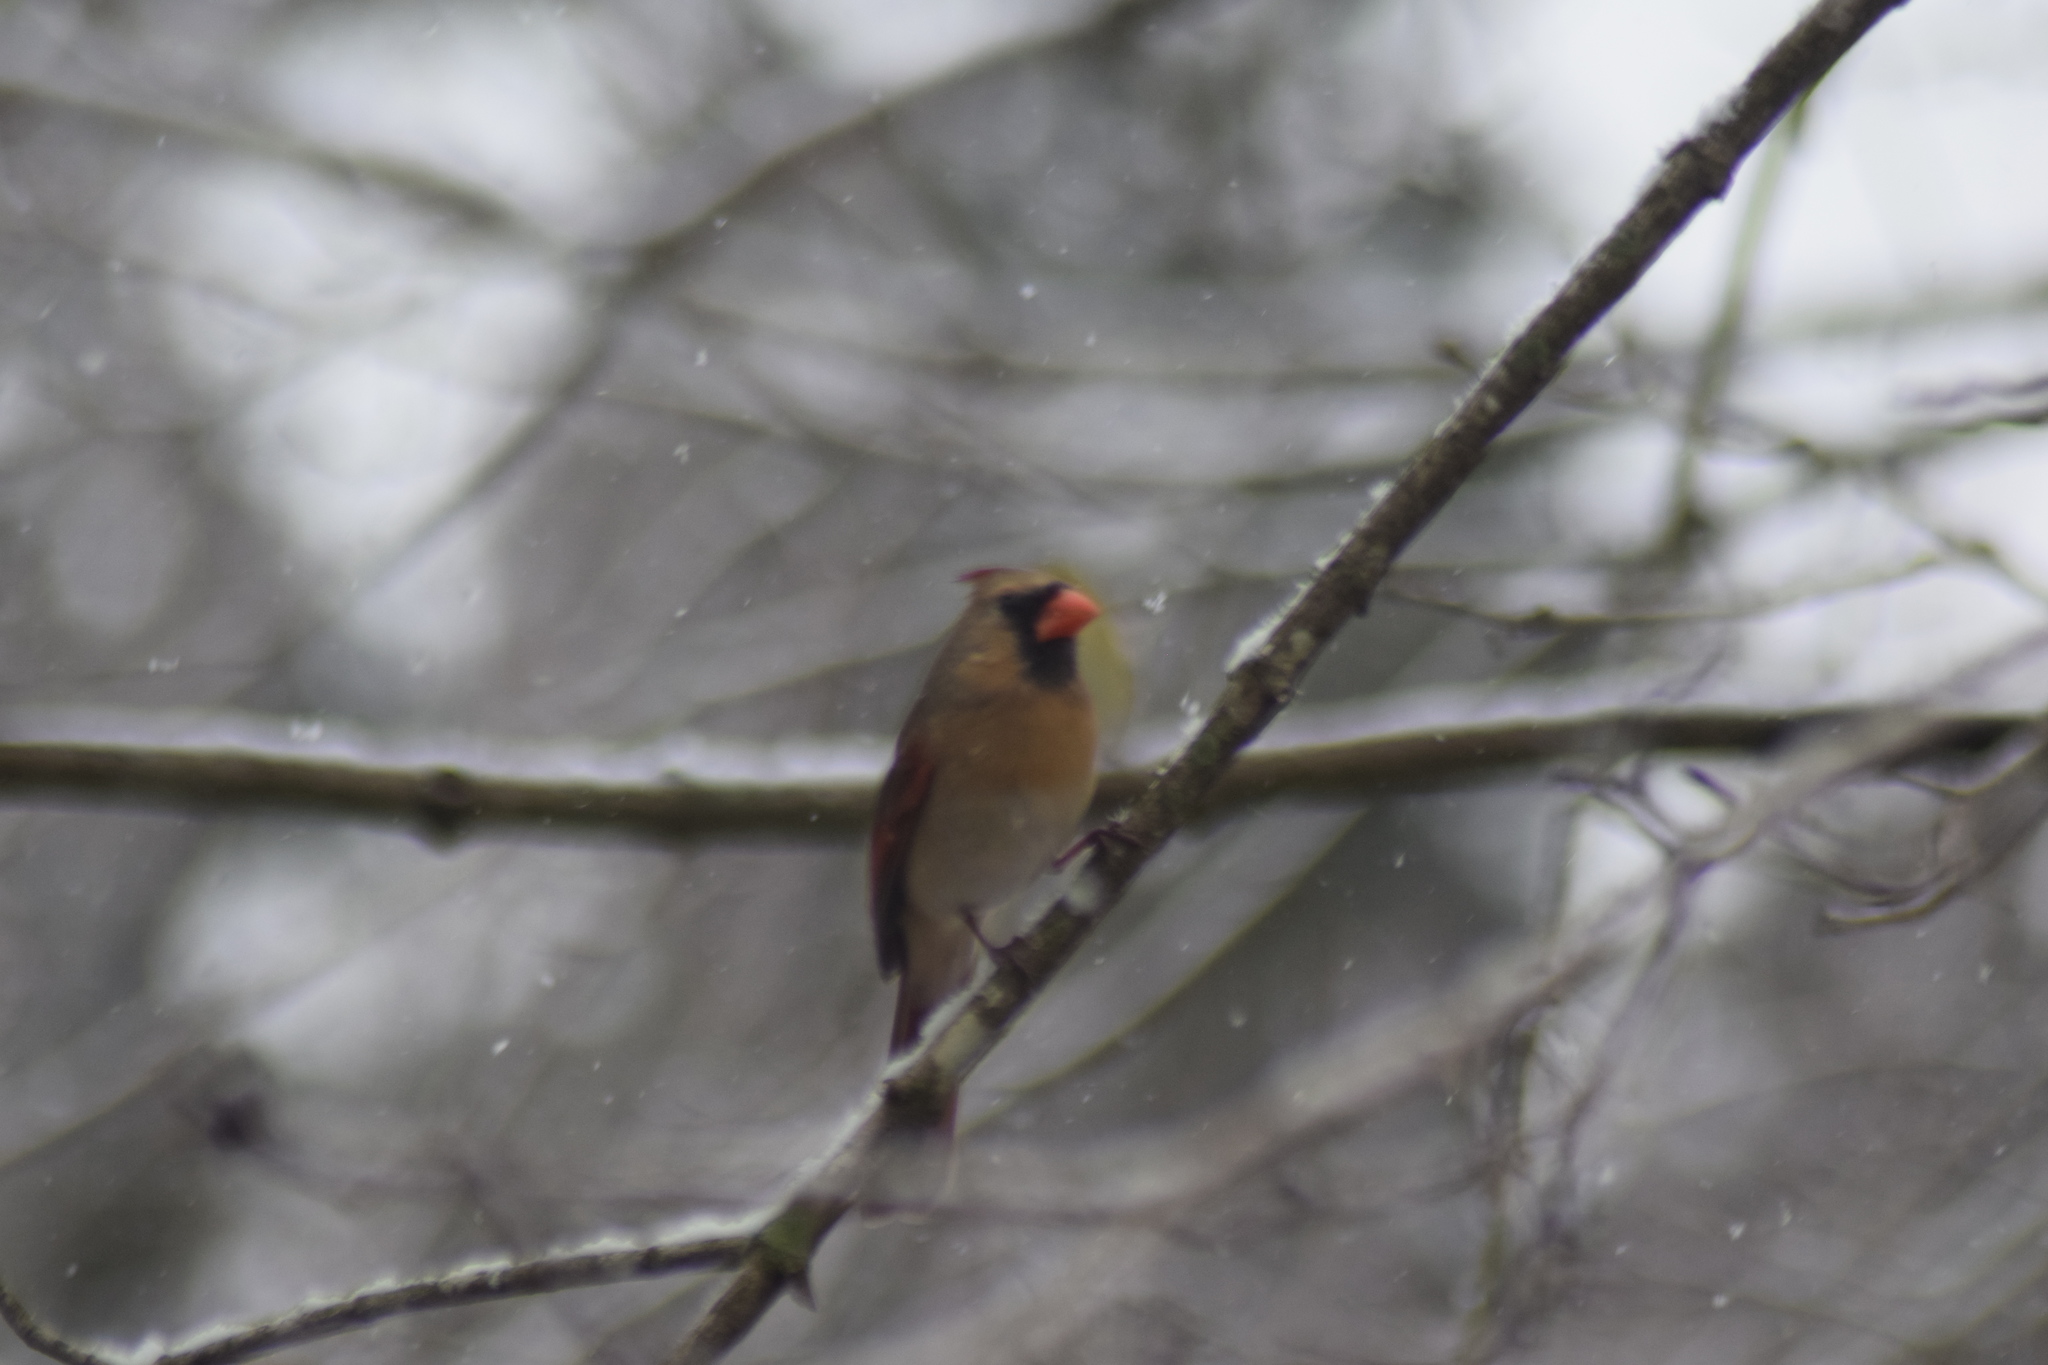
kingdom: Animalia
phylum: Chordata
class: Aves
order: Passeriformes
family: Cardinalidae
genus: Cardinalis
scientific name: Cardinalis cardinalis
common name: Northern cardinal
